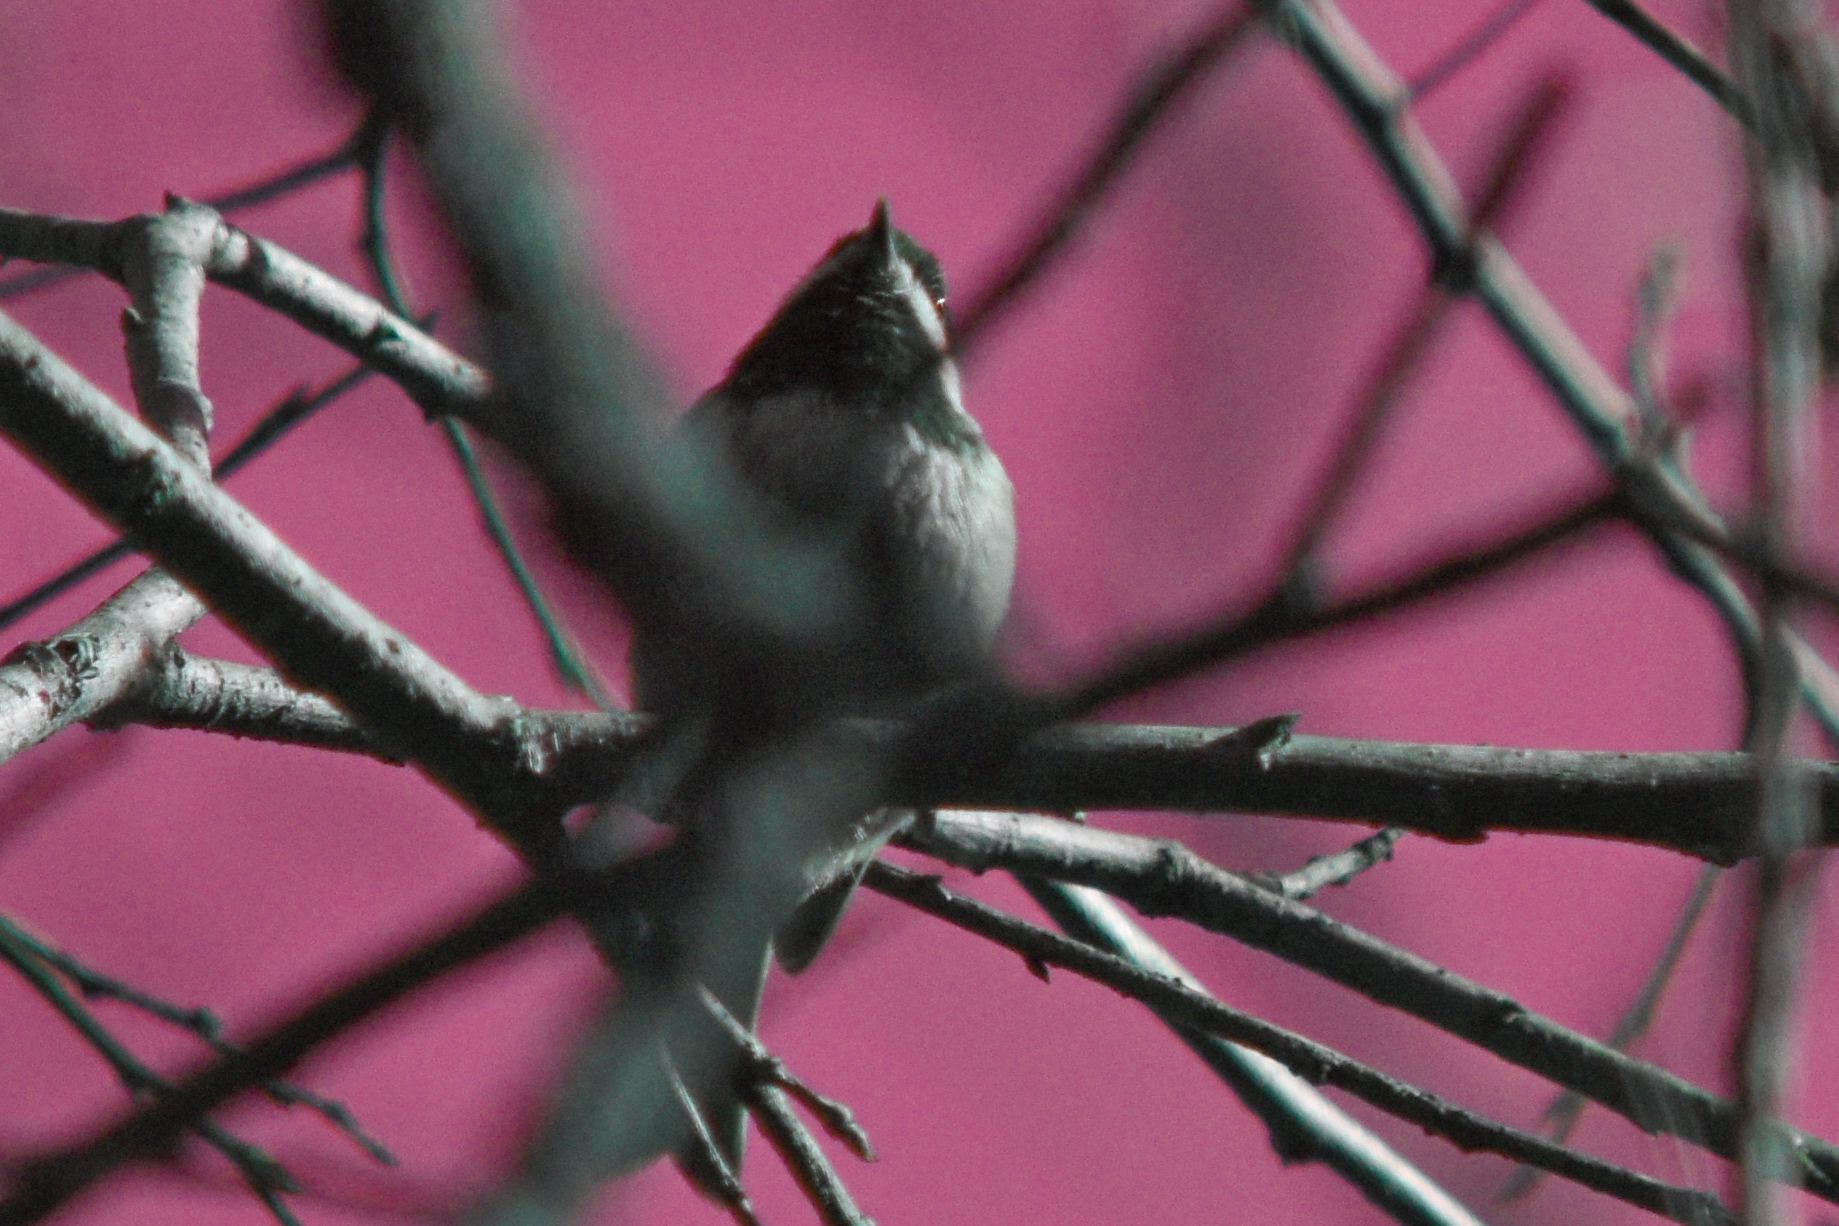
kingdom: Animalia
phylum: Chordata
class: Aves
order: Passeriformes
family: Paridae
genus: Poecile
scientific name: Poecile rufescens
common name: Chestnut-backed chickadee
